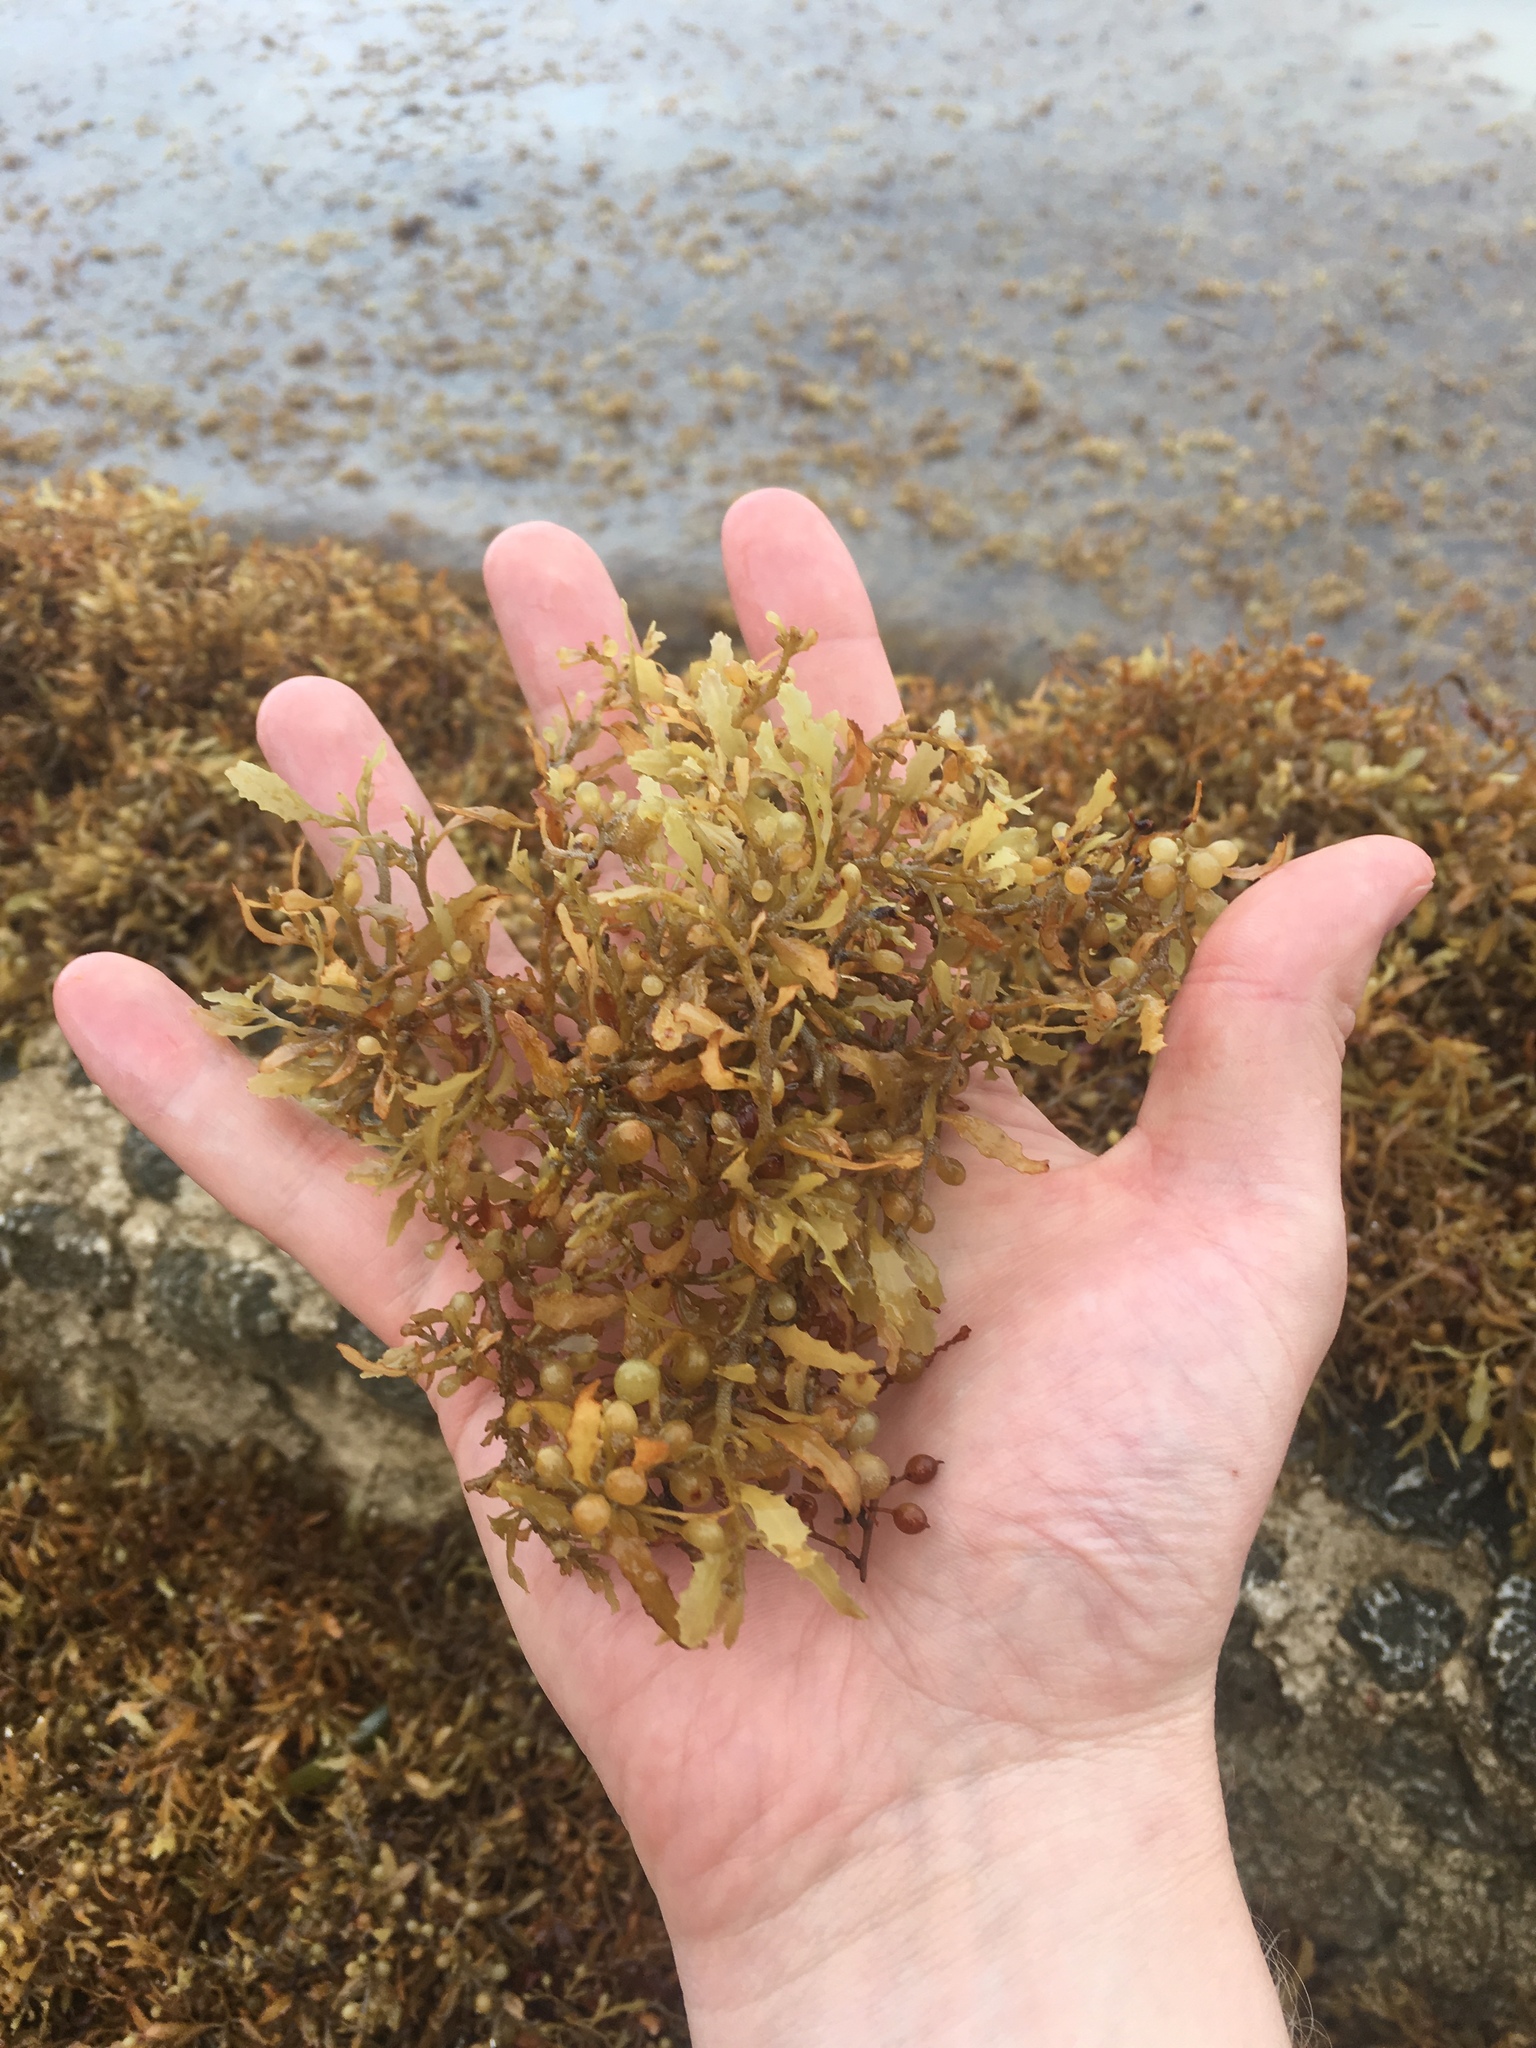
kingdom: Chromista
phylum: Ochrophyta
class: Phaeophyceae
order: Fucales
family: Sargassaceae
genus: Sargassum
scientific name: Sargassum fluitans
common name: Sargassum seaweed
